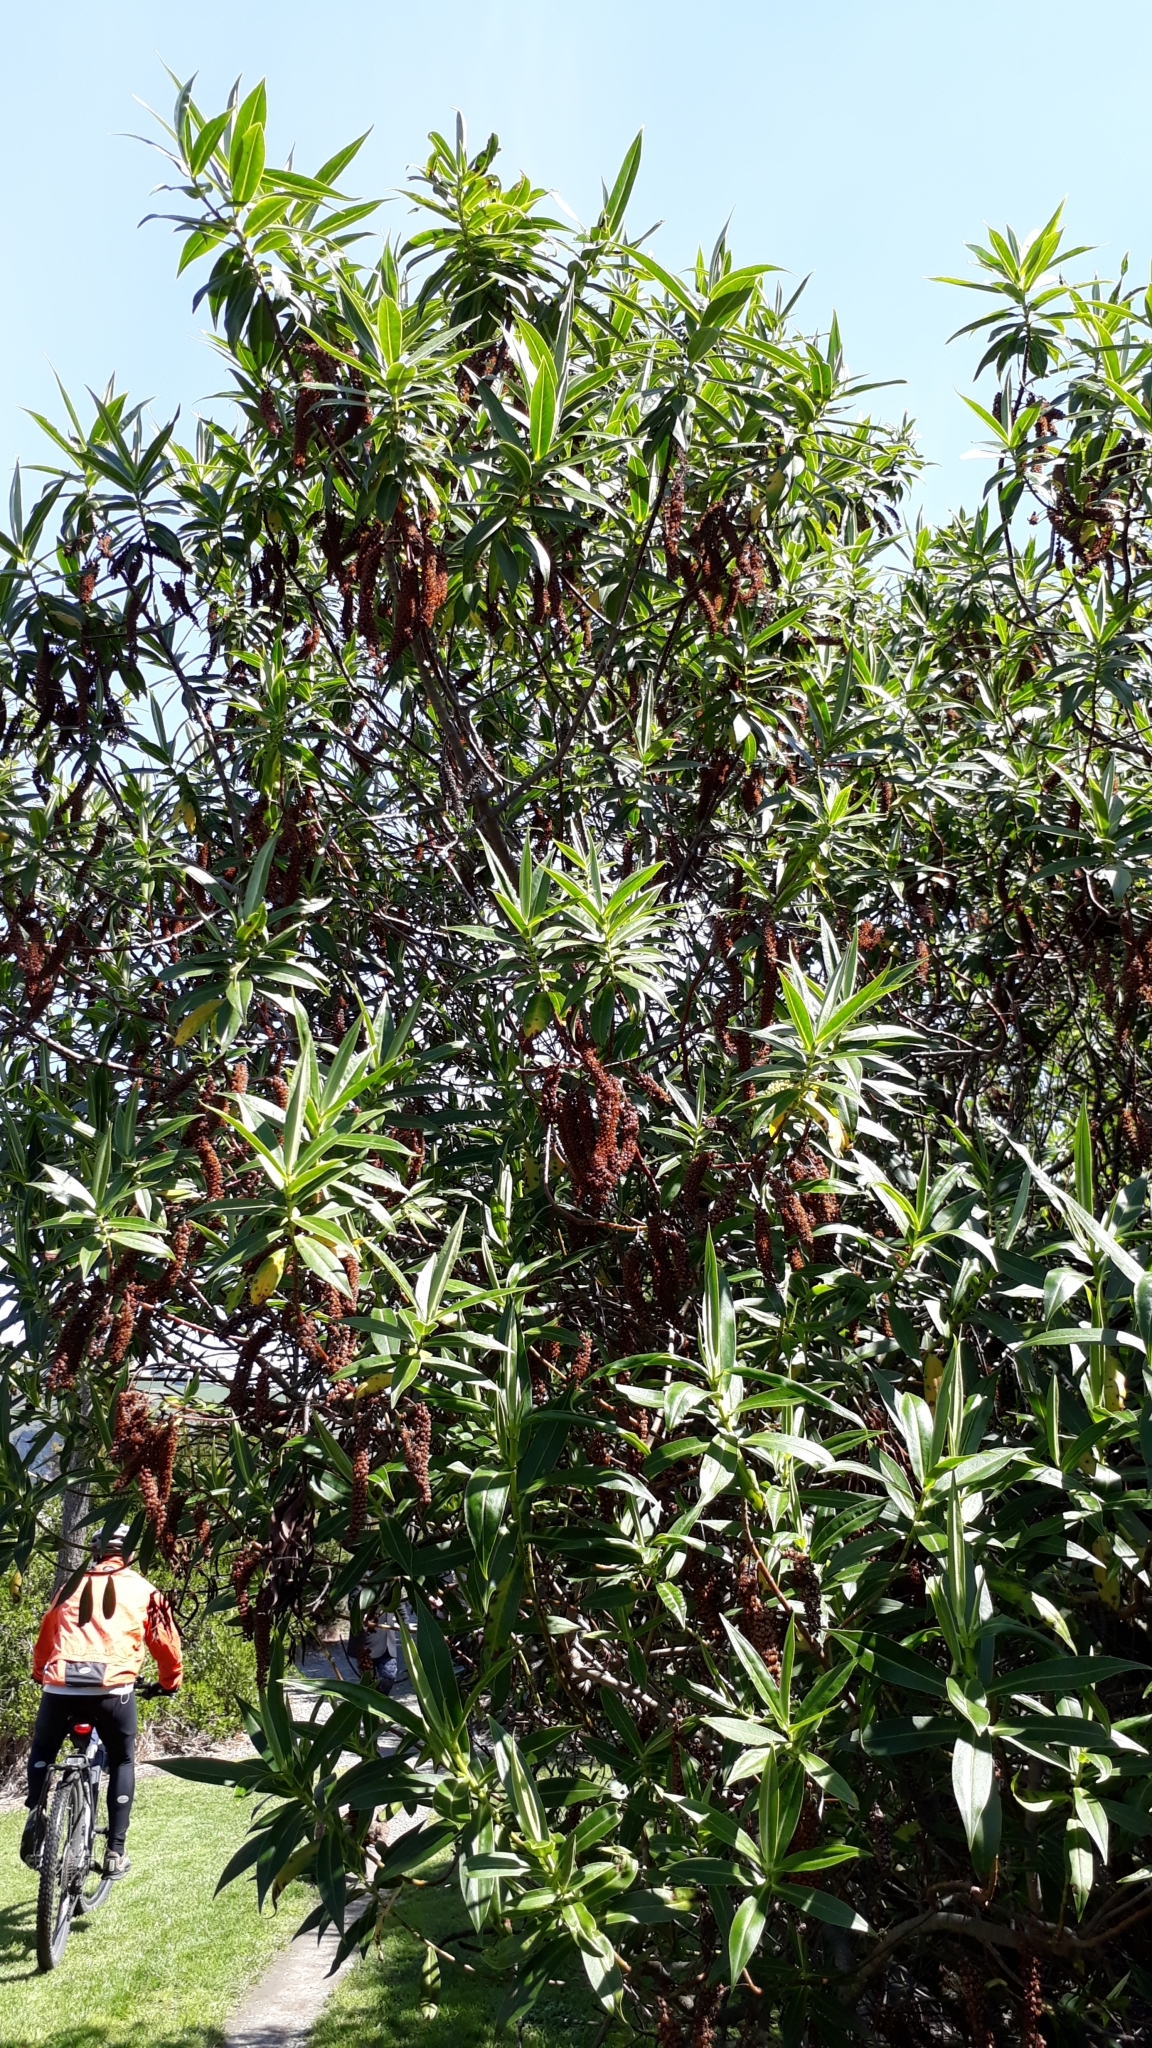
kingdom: Plantae
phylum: Tracheophyta
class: Magnoliopsida
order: Lamiales
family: Plantaginaceae
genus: Veronica
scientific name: Veronica salicifolia
